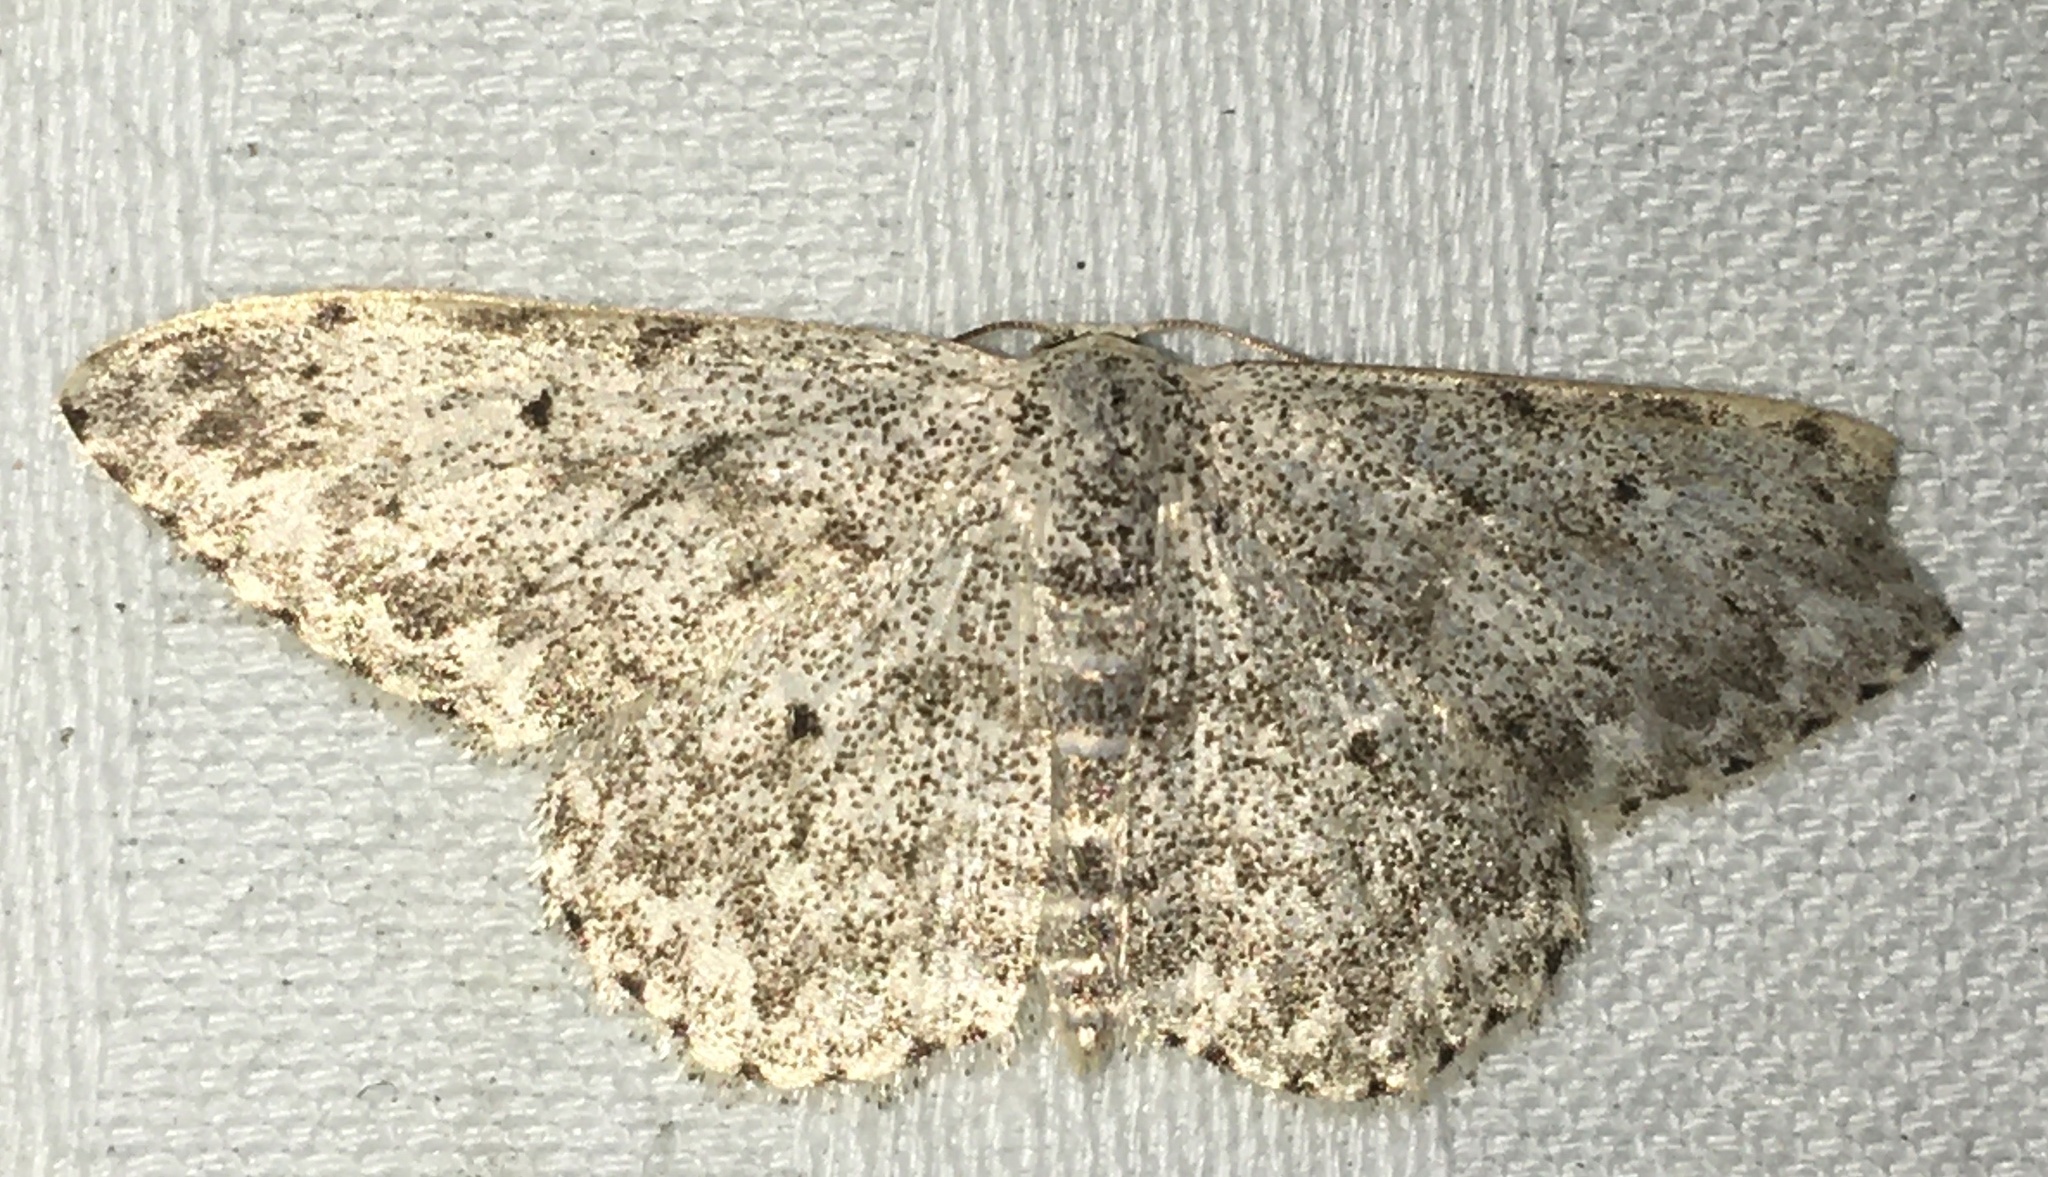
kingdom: Animalia
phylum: Arthropoda
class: Insecta
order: Lepidoptera
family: Geometridae
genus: Scopula
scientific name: Scopula marginepunctata
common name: Mullein wave
